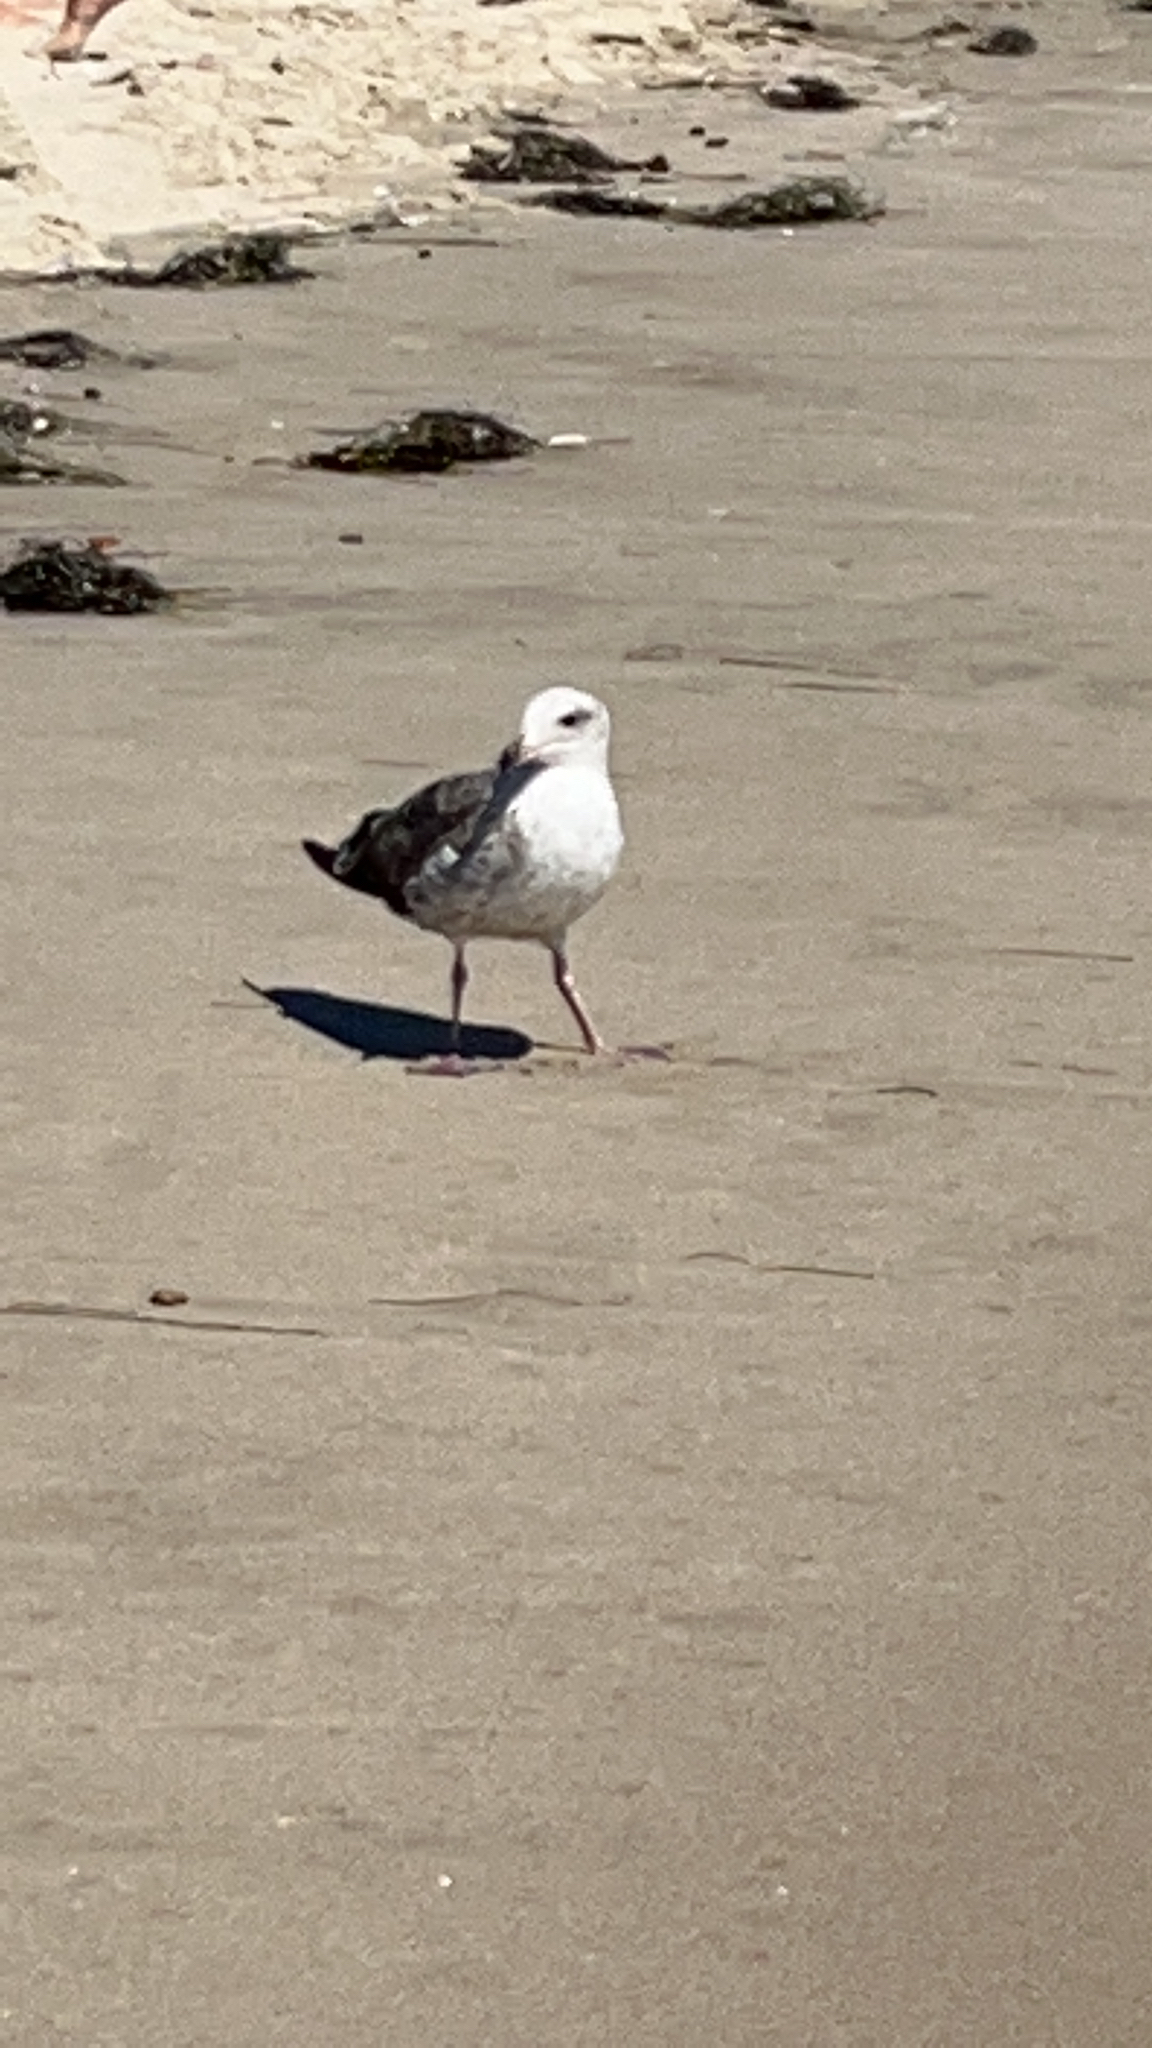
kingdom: Animalia
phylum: Chordata
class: Aves
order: Charadriiformes
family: Laridae
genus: Larus
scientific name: Larus occidentalis
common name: Western gull
